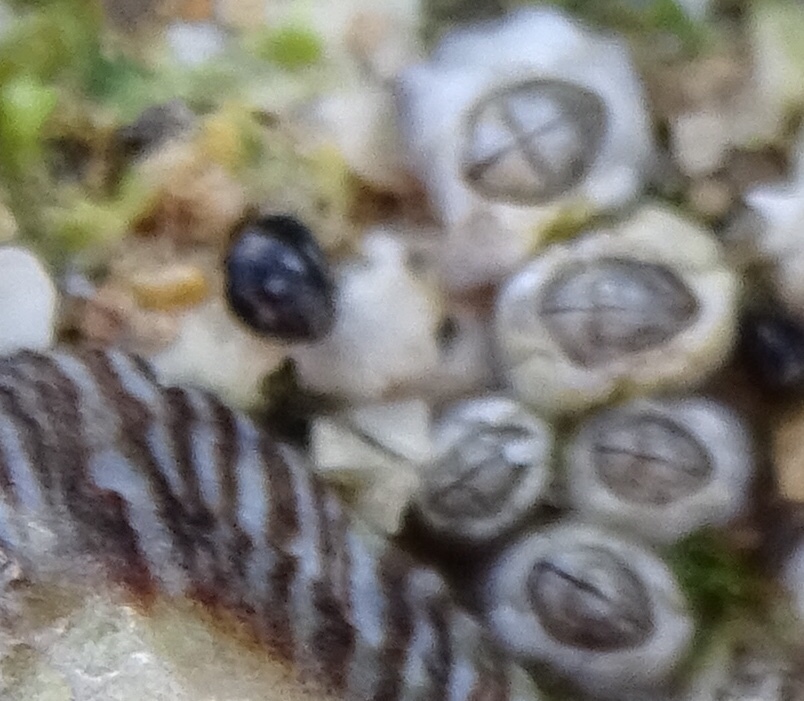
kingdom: Animalia
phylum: Mollusca
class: Gastropoda
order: Littorinimorpha
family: Littorinidae
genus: Echinolittorina
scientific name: Echinolittorina placida
